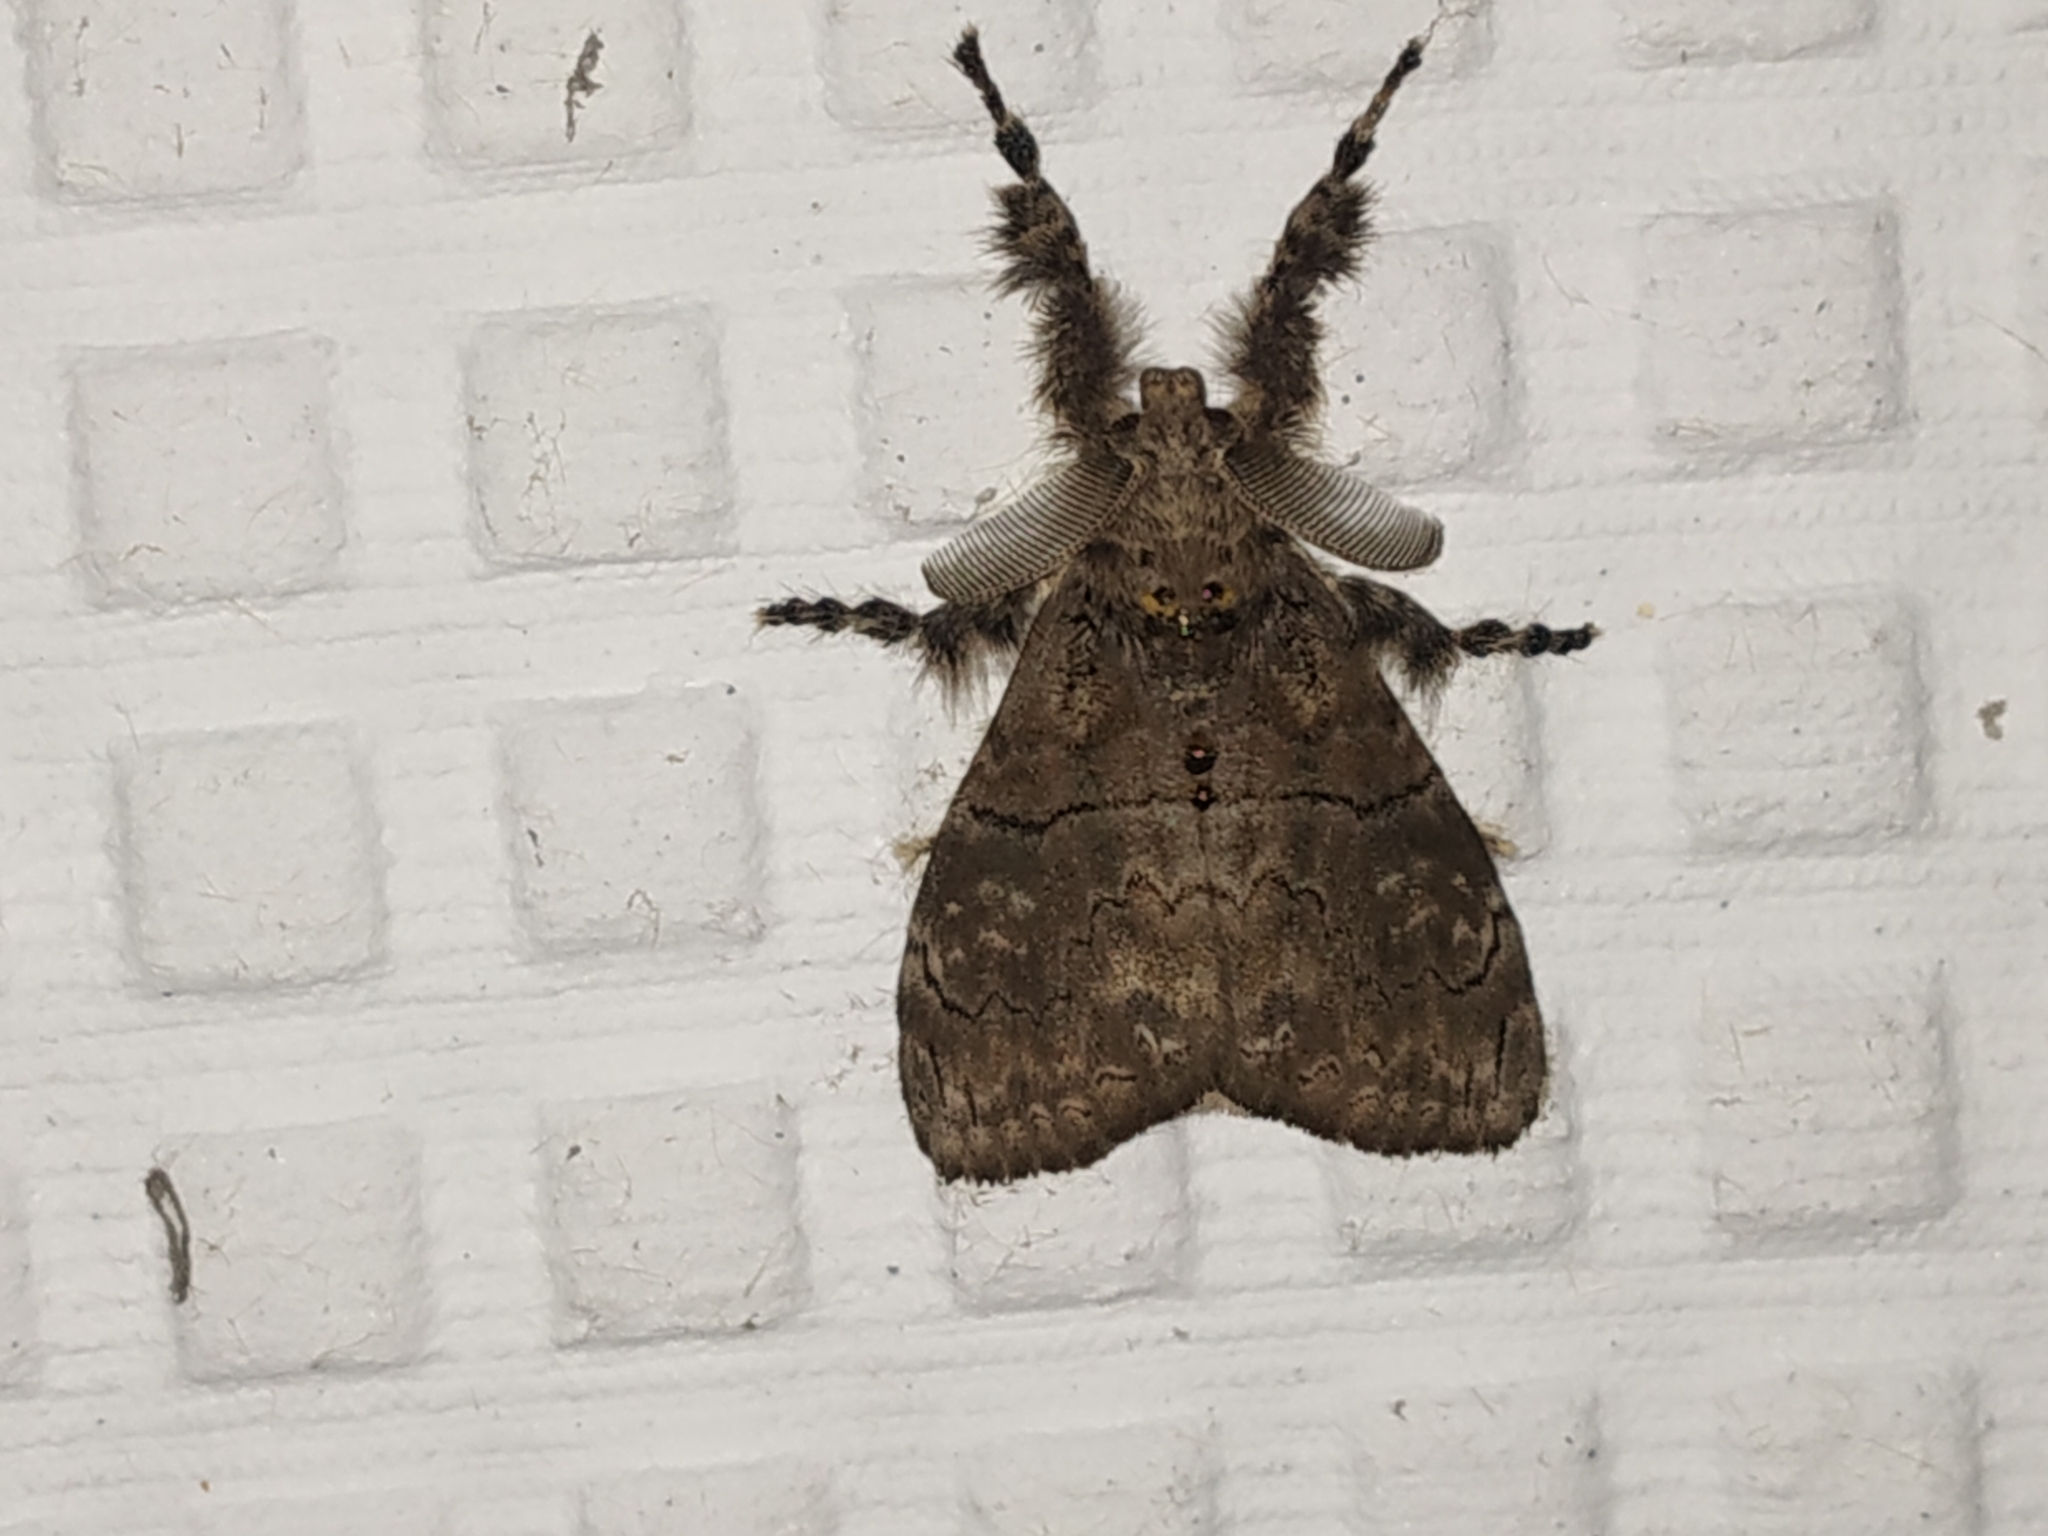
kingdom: Animalia
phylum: Arthropoda
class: Insecta
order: Lepidoptera
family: Erebidae
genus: Olene
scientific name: Olene mendosa
